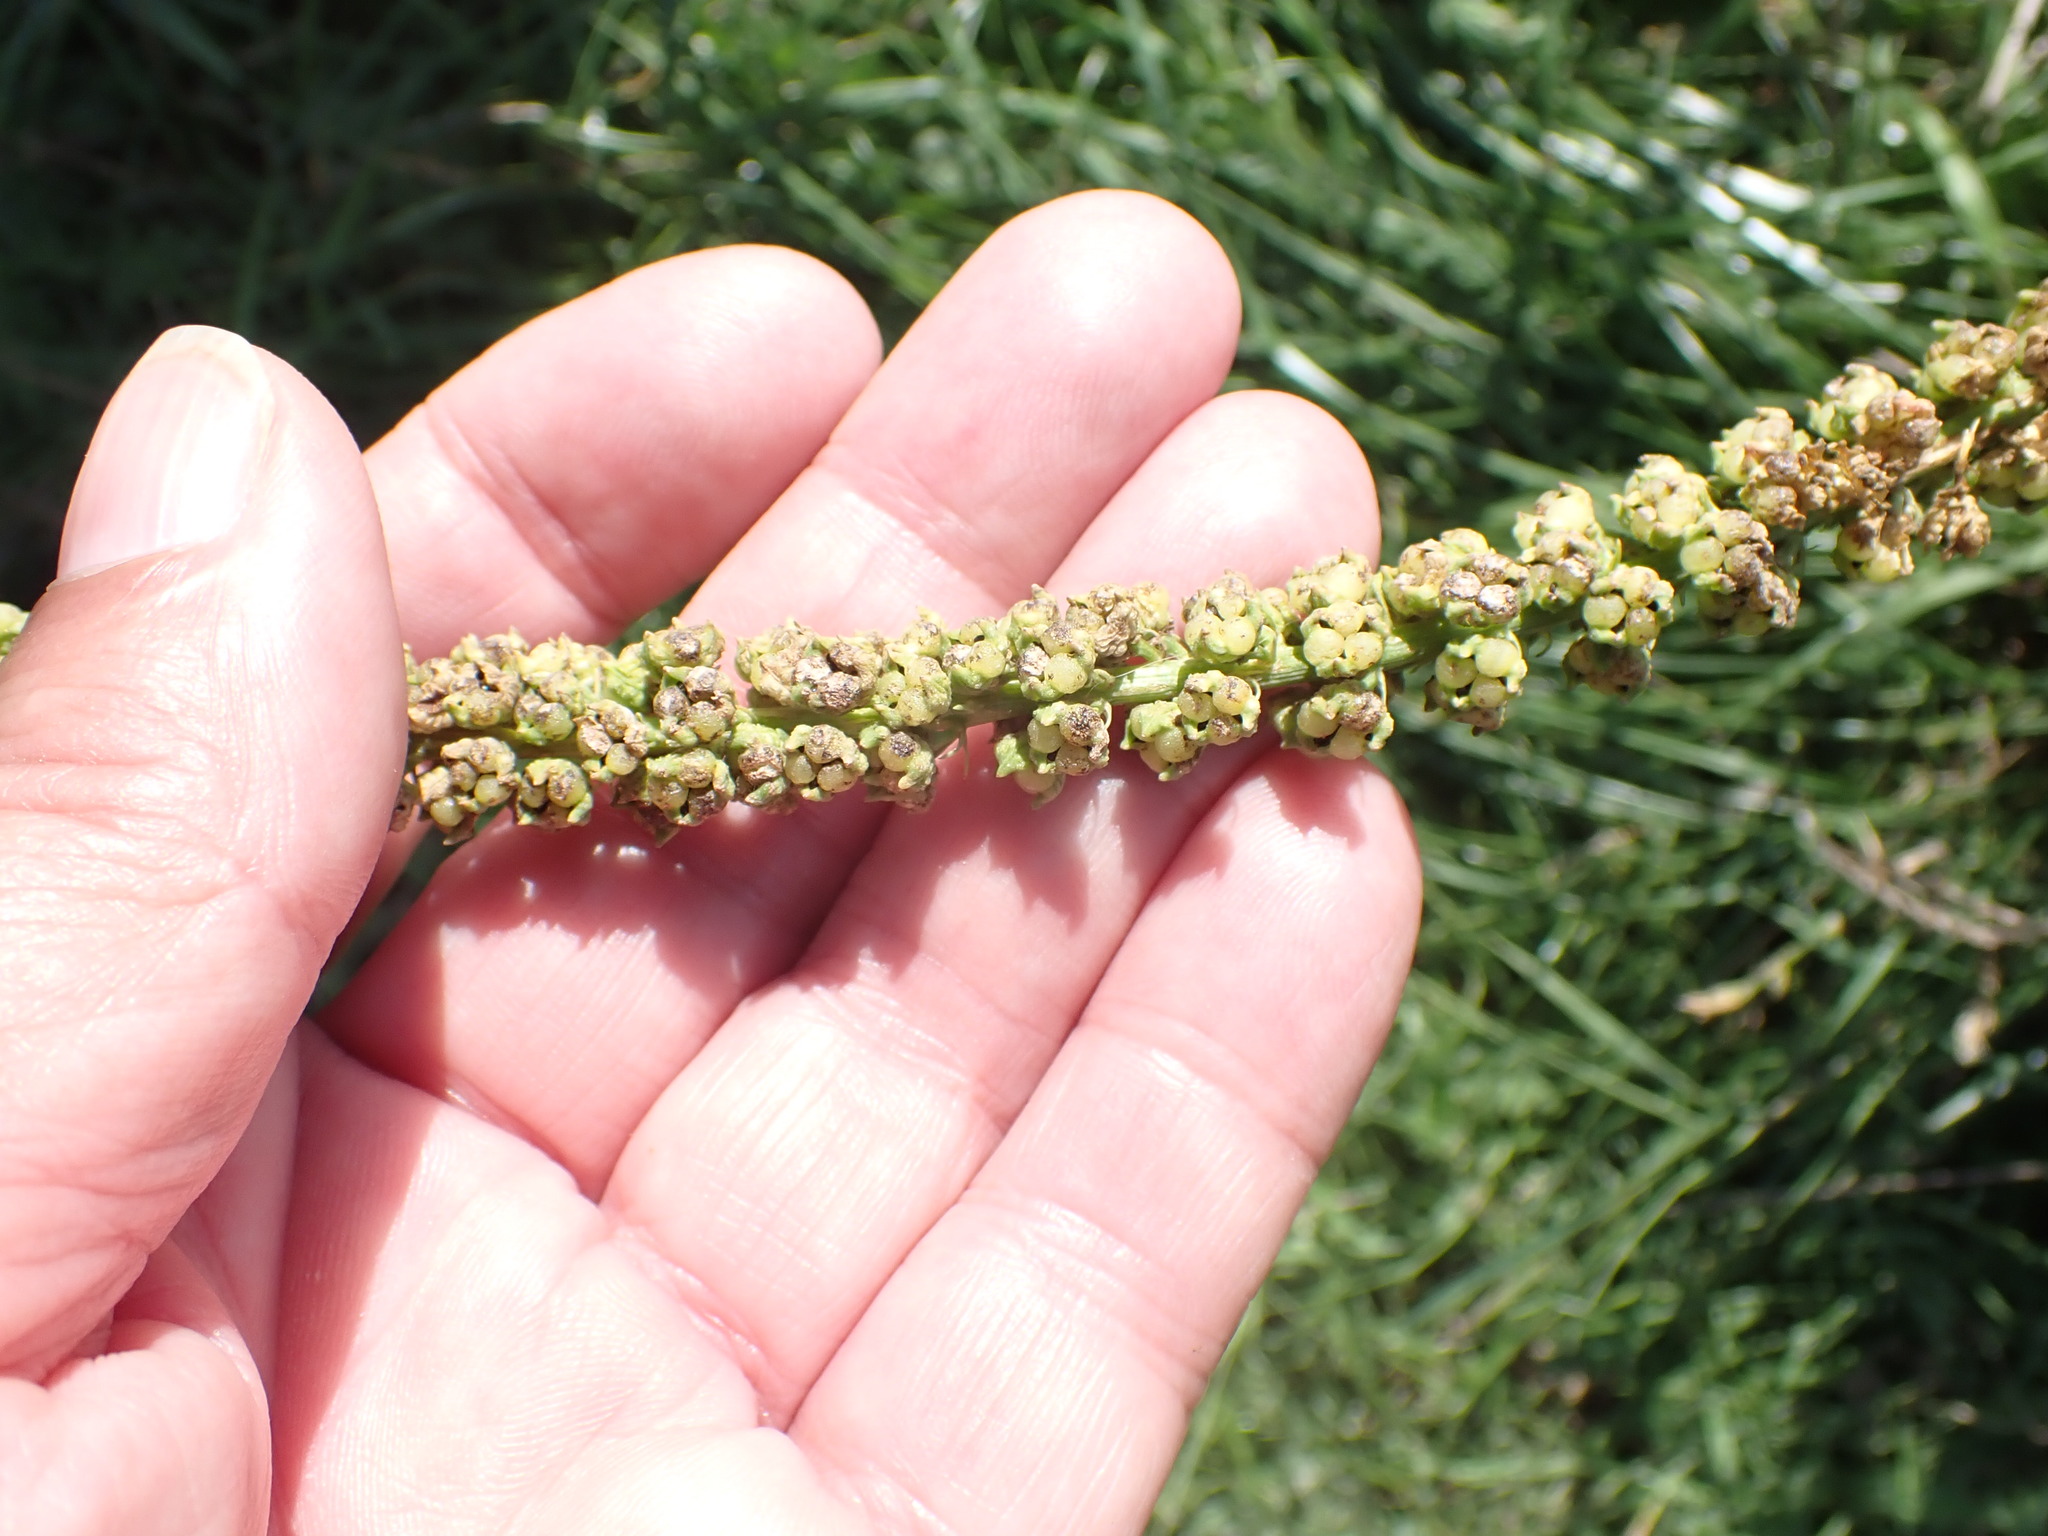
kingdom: Plantae
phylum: Tracheophyta
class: Magnoliopsida
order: Brassicales
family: Resedaceae
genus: Reseda
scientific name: Reseda luteola
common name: Weld
